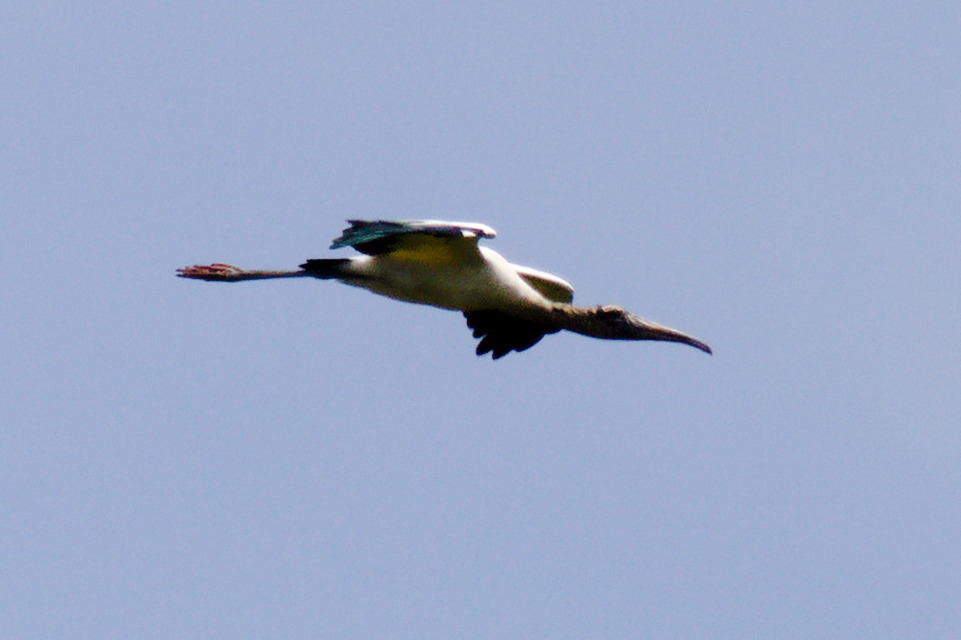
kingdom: Animalia
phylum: Chordata
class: Aves
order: Ciconiiformes
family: Ciconiidae
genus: Mycteria
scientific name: Mycteria americana
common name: Wood stork
